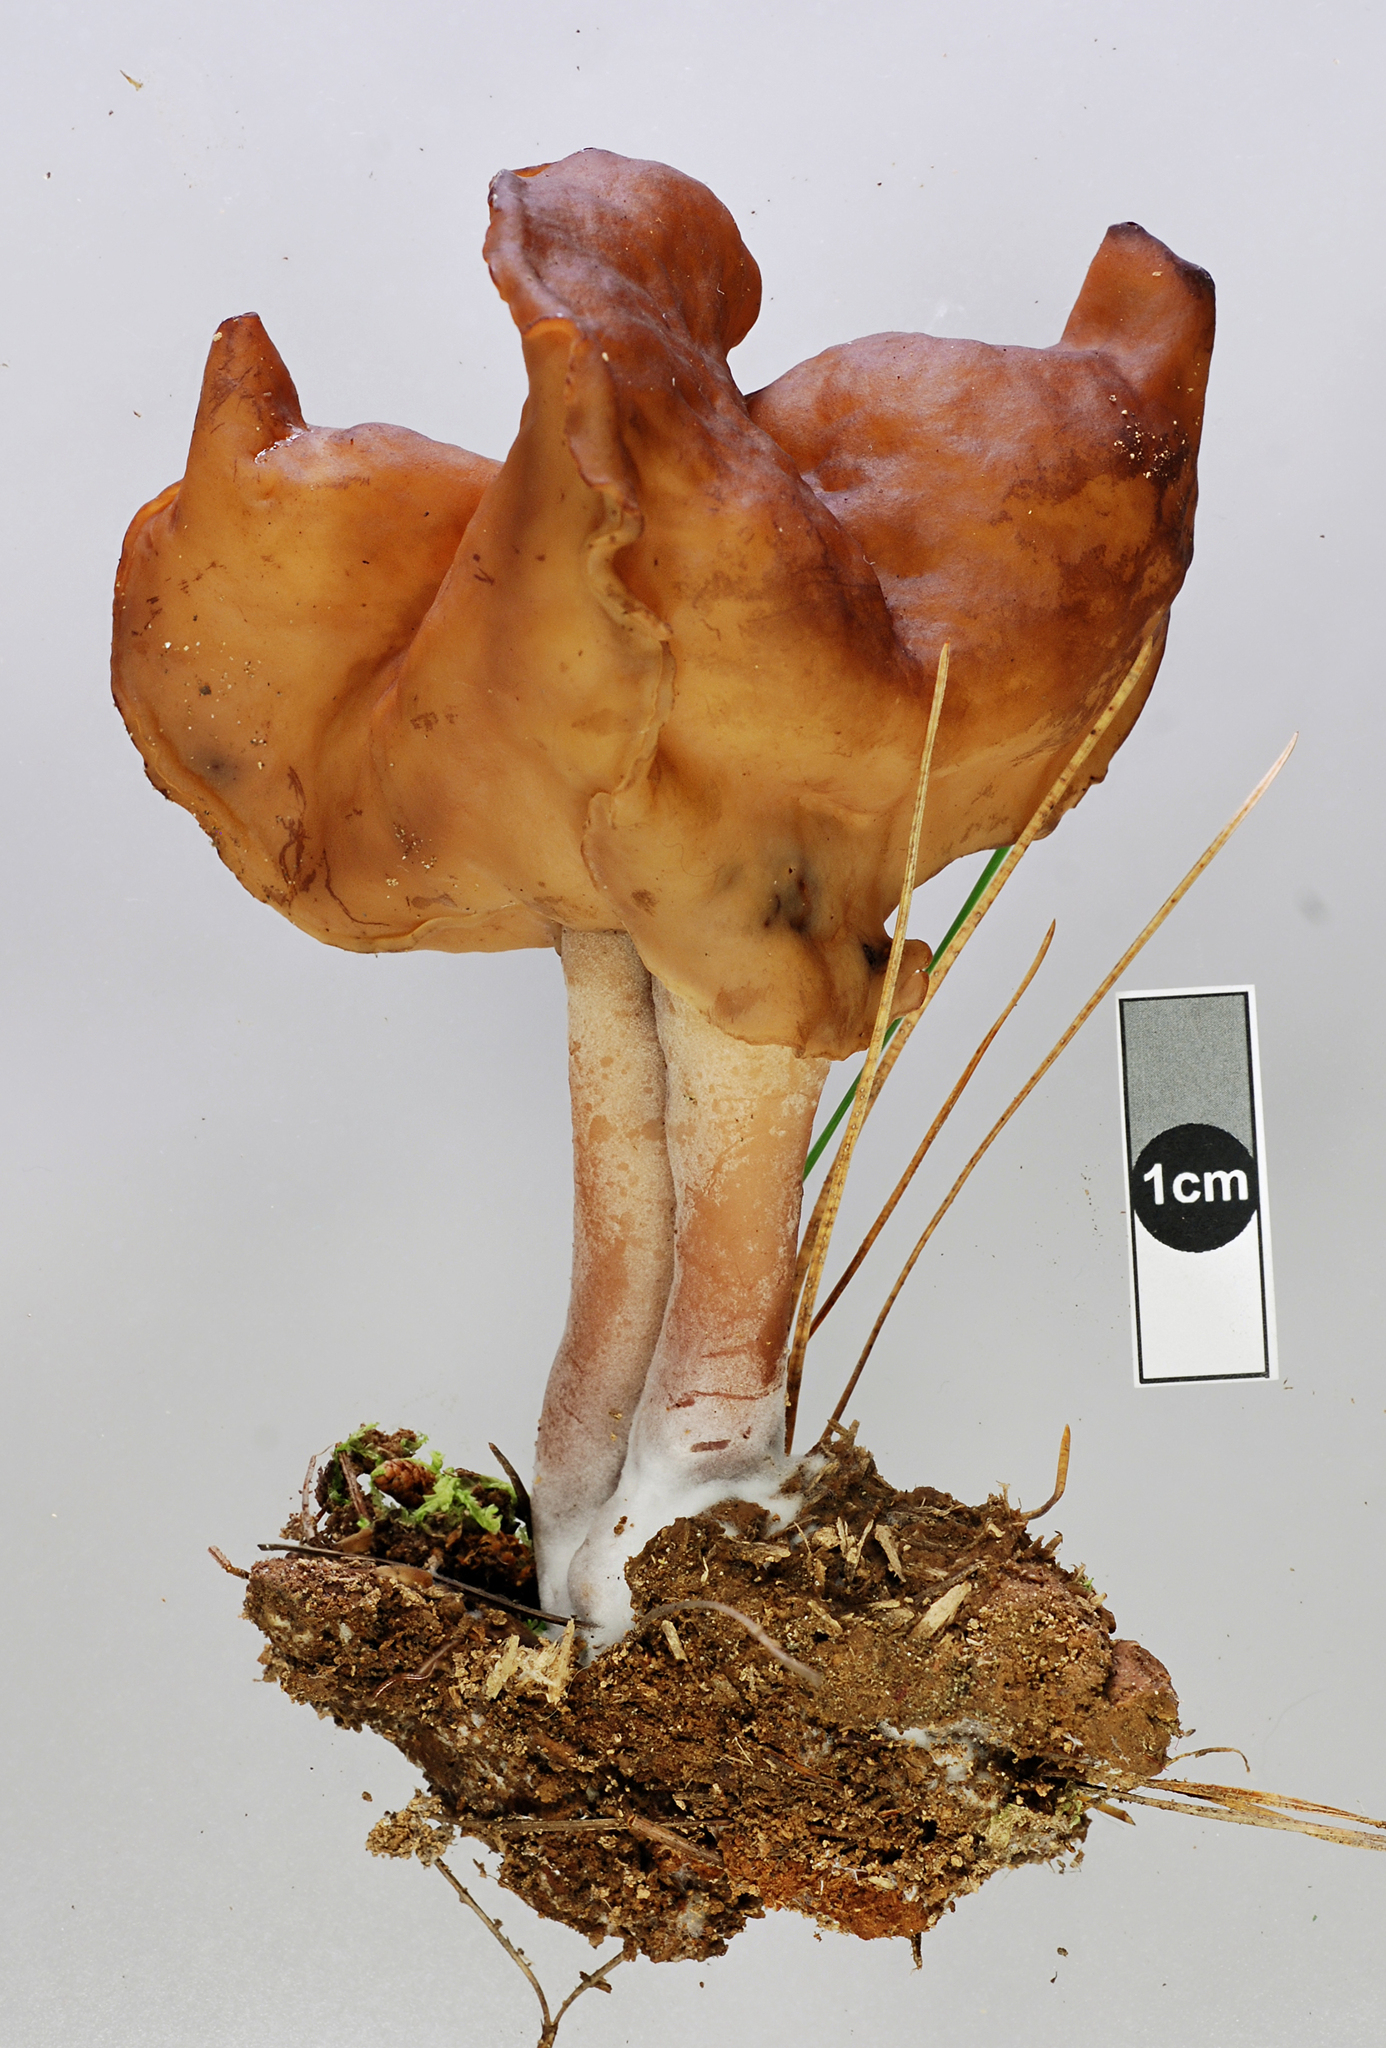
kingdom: Fungi
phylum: Ascomycota
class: Pezizomycetes
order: Pezizales
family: Discinaceae
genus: Gyromitra
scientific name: Gyromitra infula
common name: Pouched false morel
